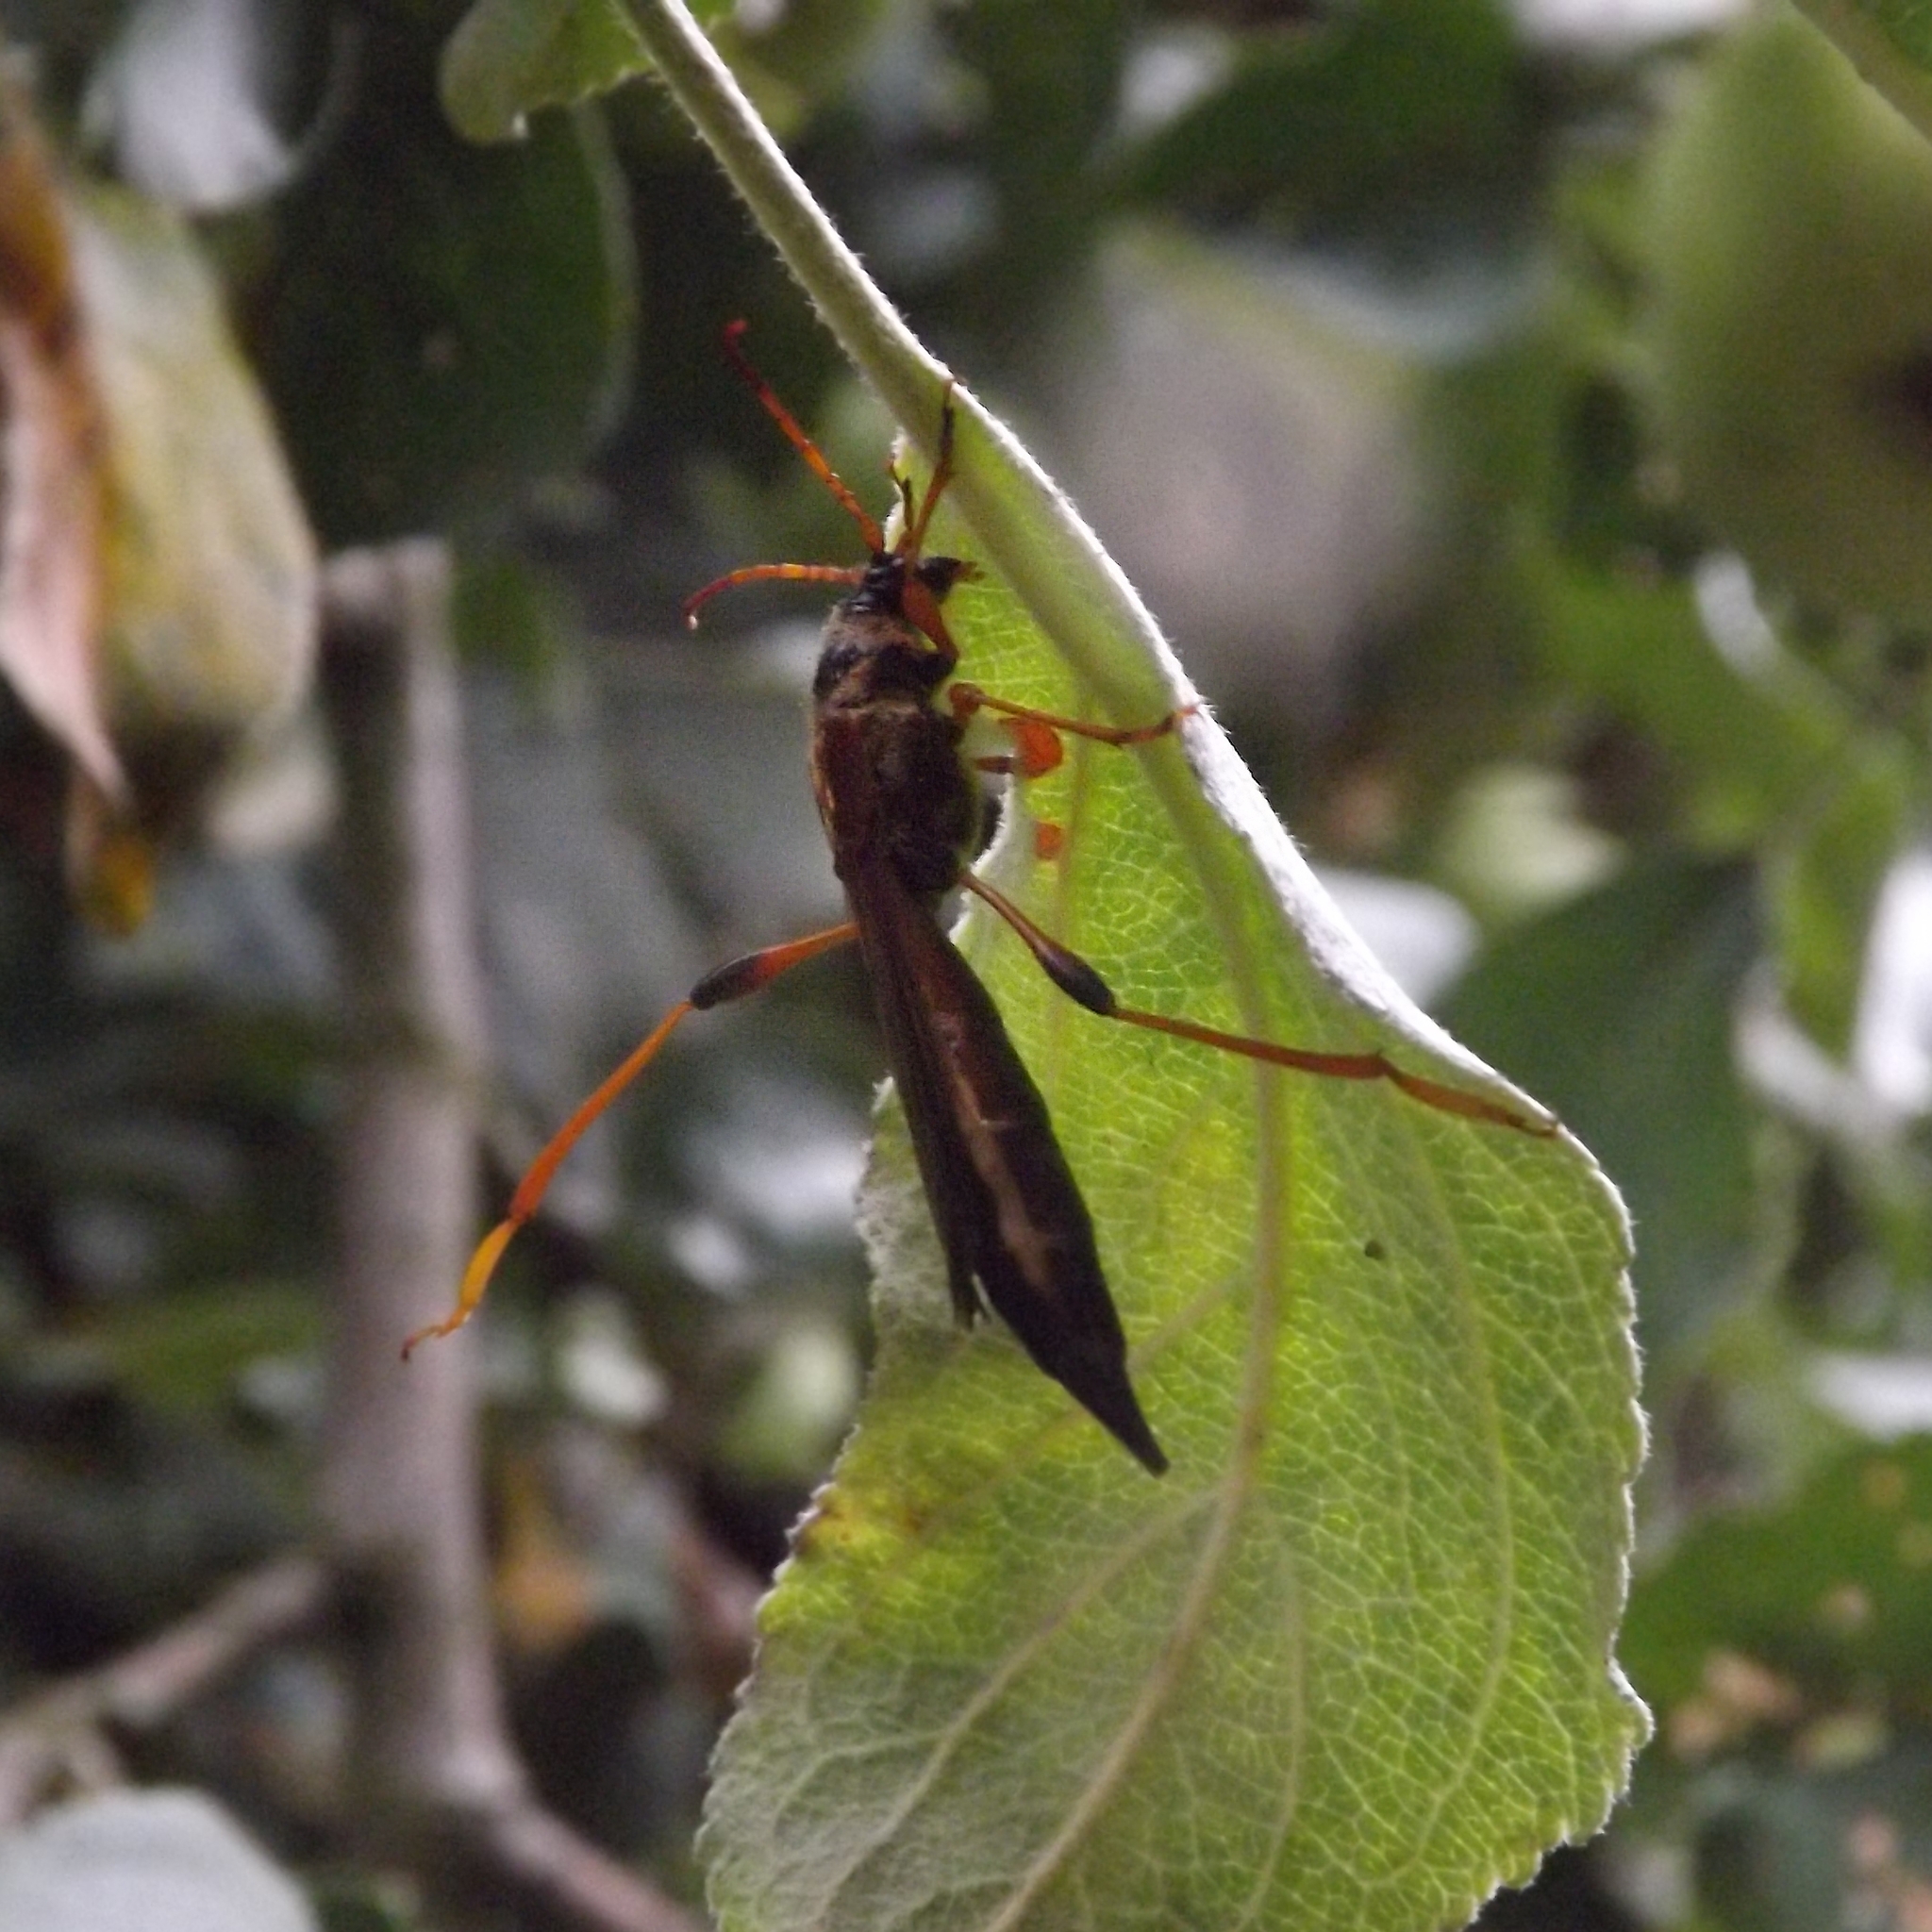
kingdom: Animalia
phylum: Arthropoda
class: Insecta
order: Coleoptera
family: Cerambycidae
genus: Necydalis
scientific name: Necydalis major
